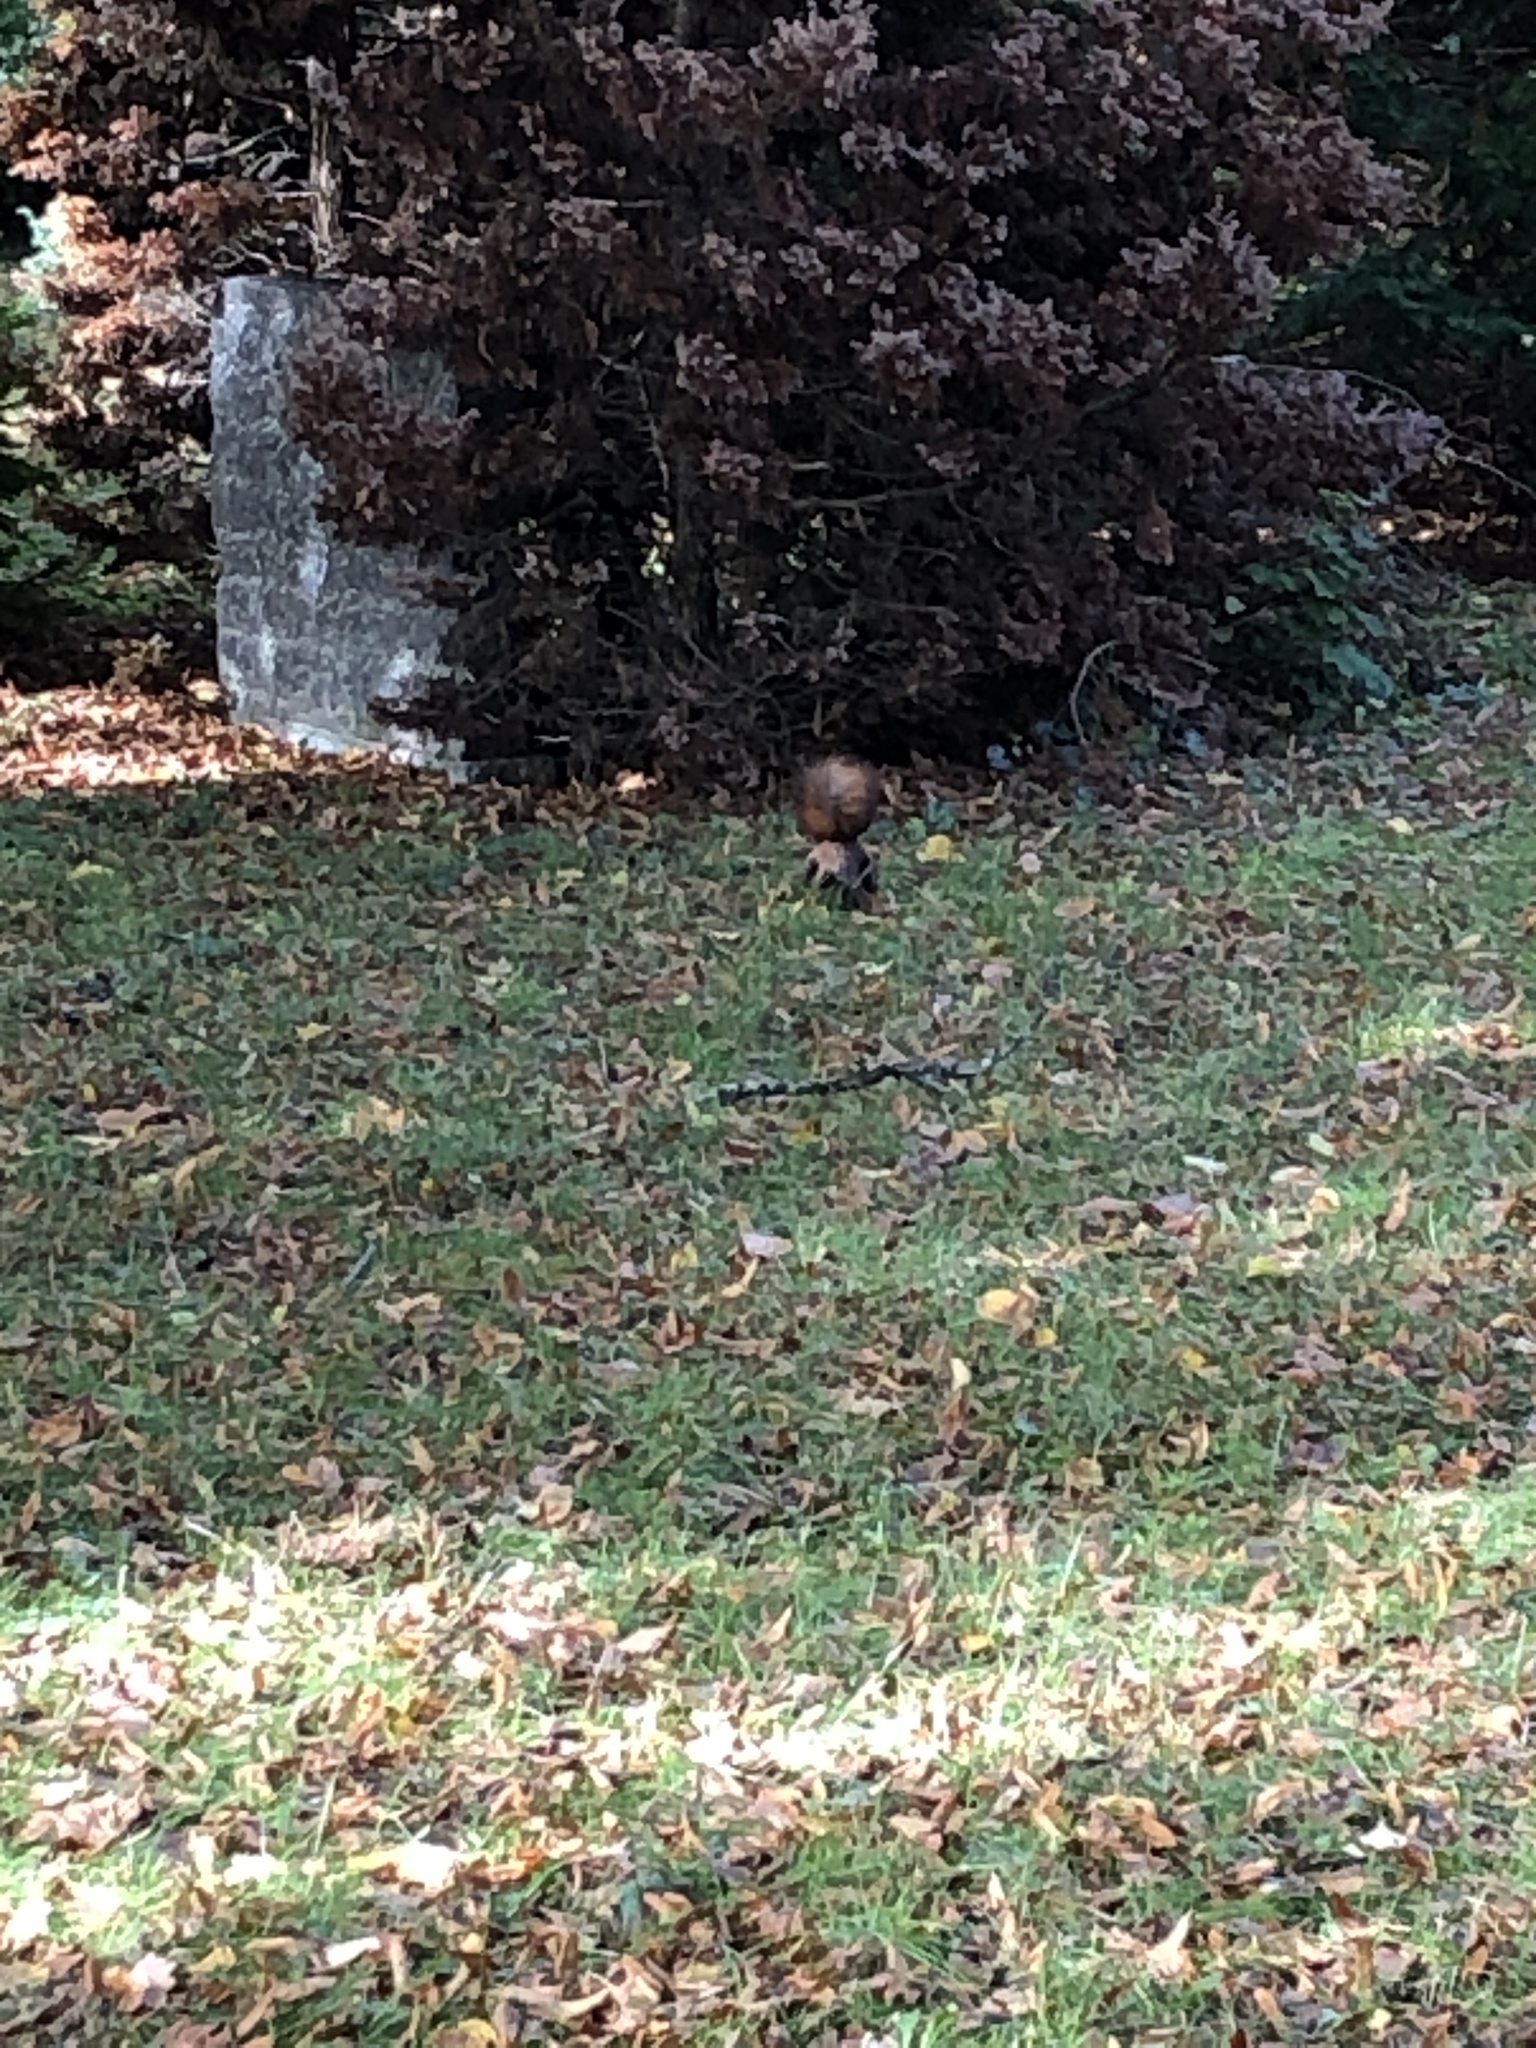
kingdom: Animalia
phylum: Chordata
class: Mammalia
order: Rodentia
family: Sciuridae
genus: Sciurus
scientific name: Sciurus vulgaris
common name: Eurasian red squirrel
